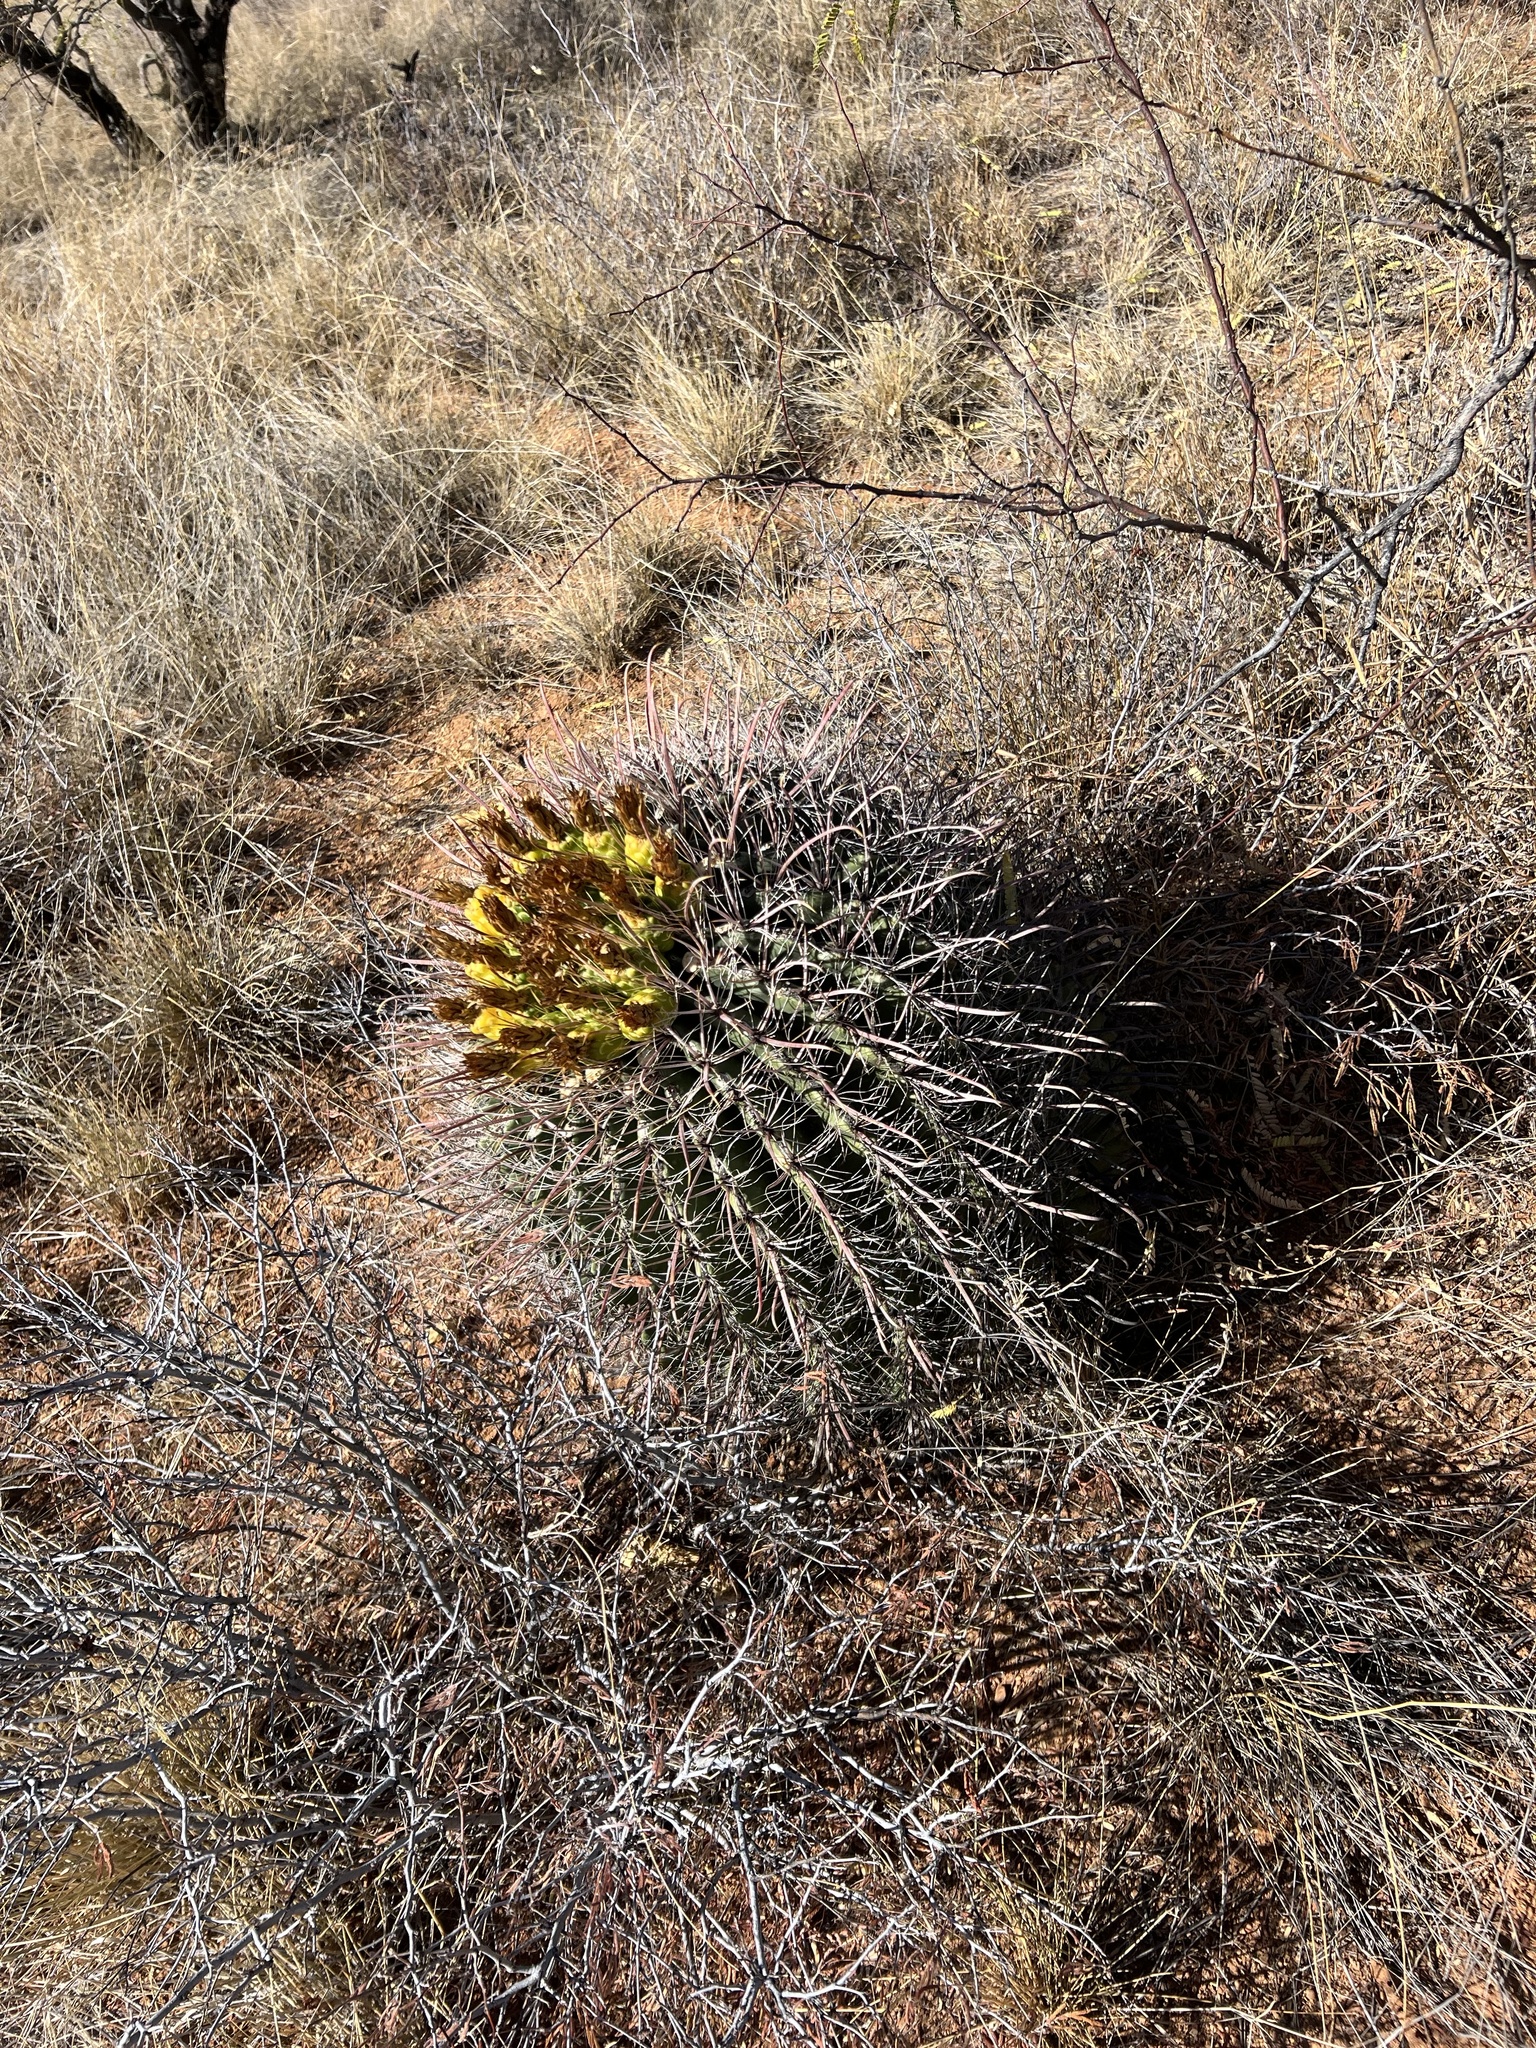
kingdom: Plantae
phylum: Tracheophyta
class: Magnoliopsida
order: Caryophyllales
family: Cactaceae
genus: Ferocactus
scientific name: Ferocactus wislizeni
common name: Candy barrel cactus
